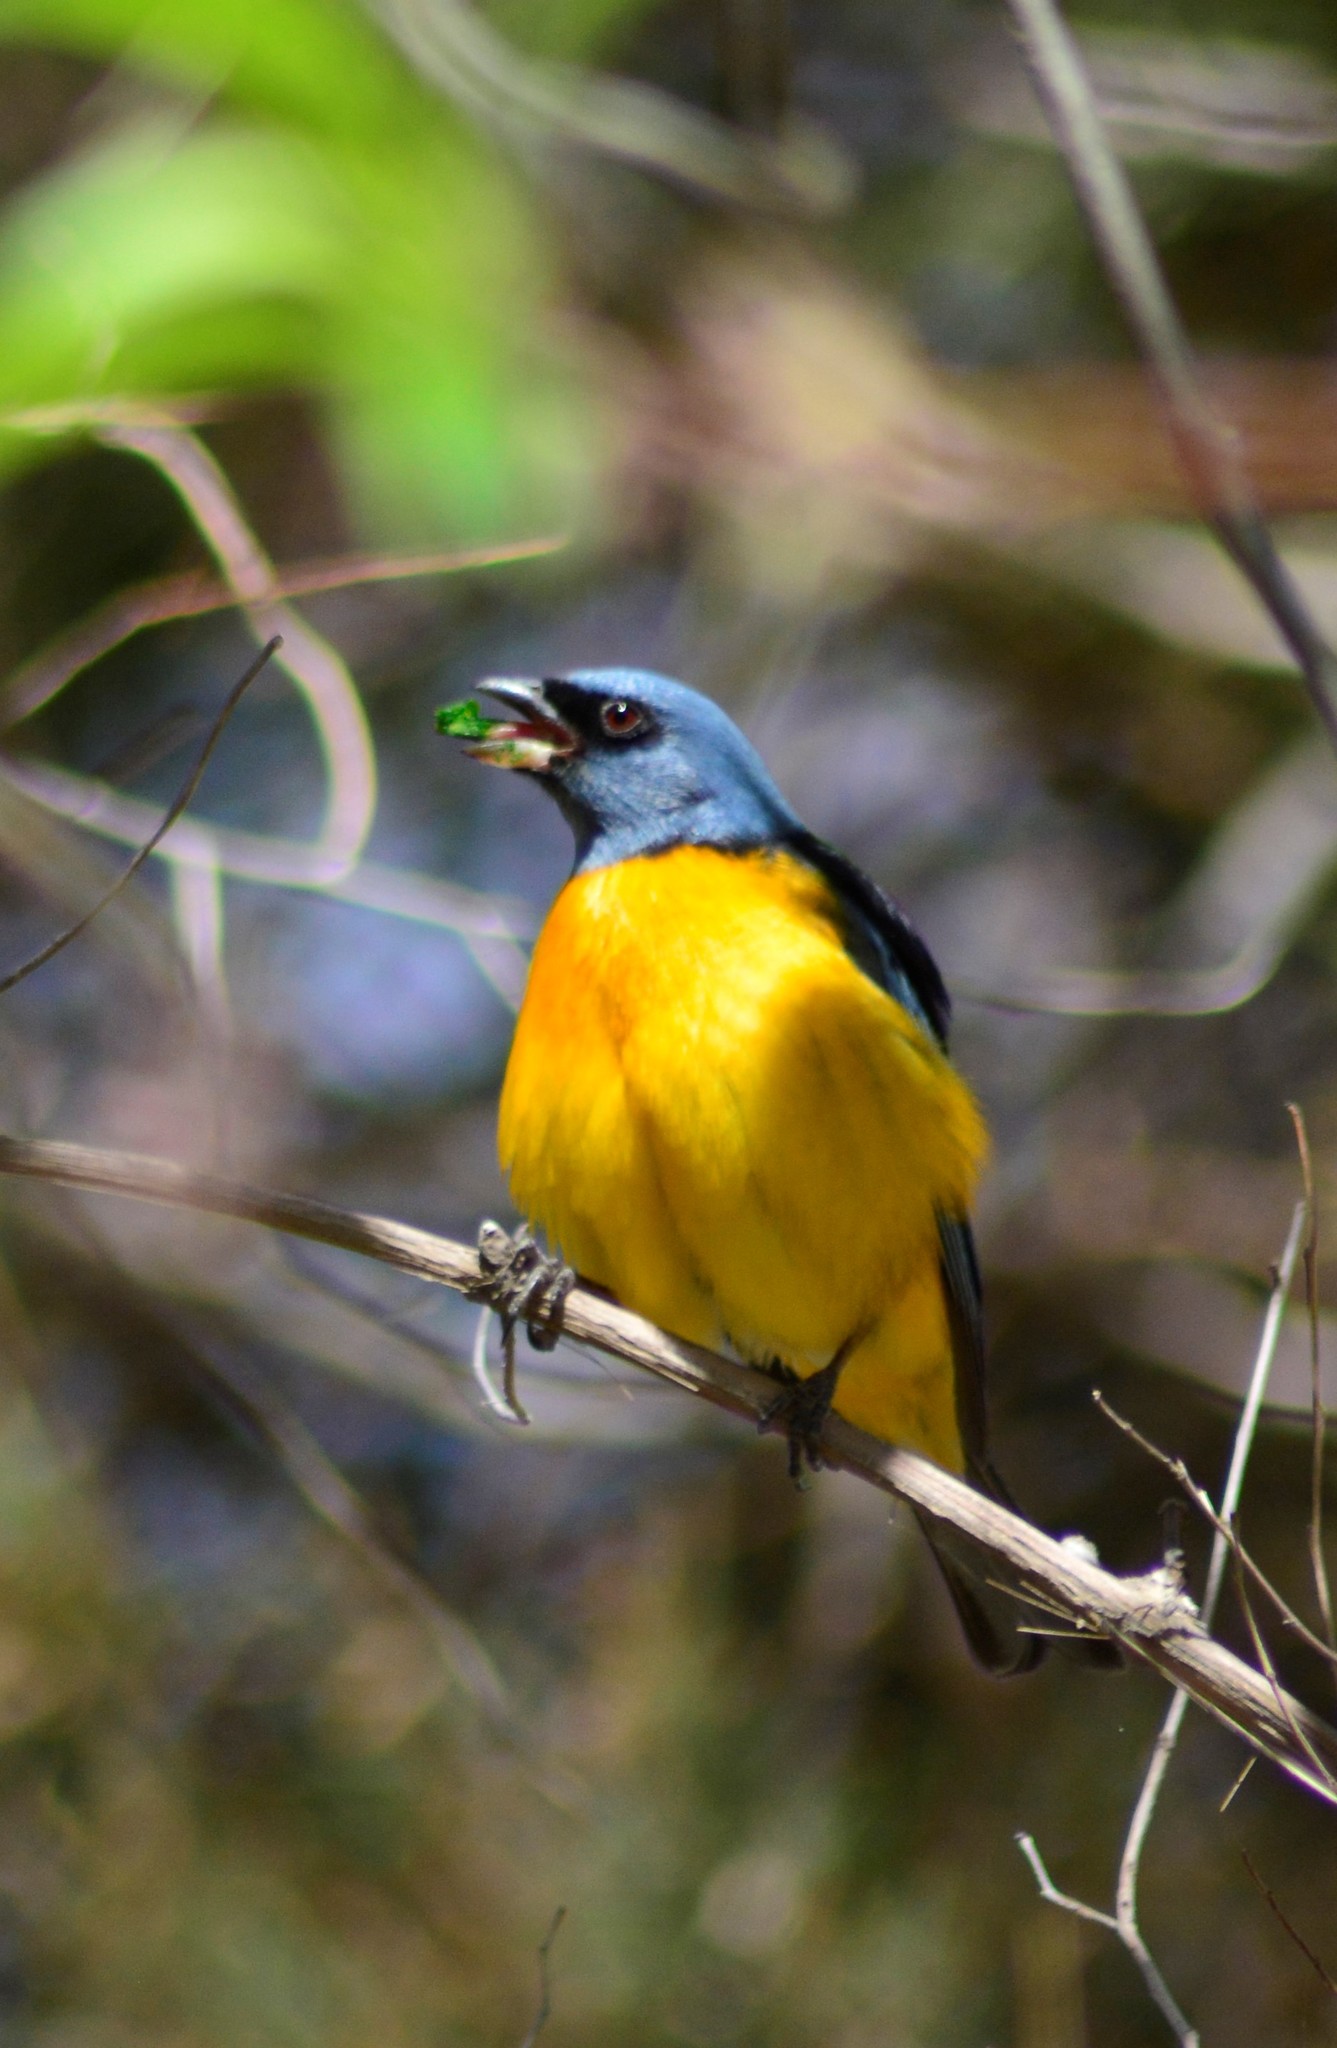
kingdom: Animalia
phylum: Chordata
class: Aves
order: Passeriformes
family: Thraupidae
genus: Rauenia
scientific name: Rauenia bonariensis
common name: Blue-and-yellow tanager
